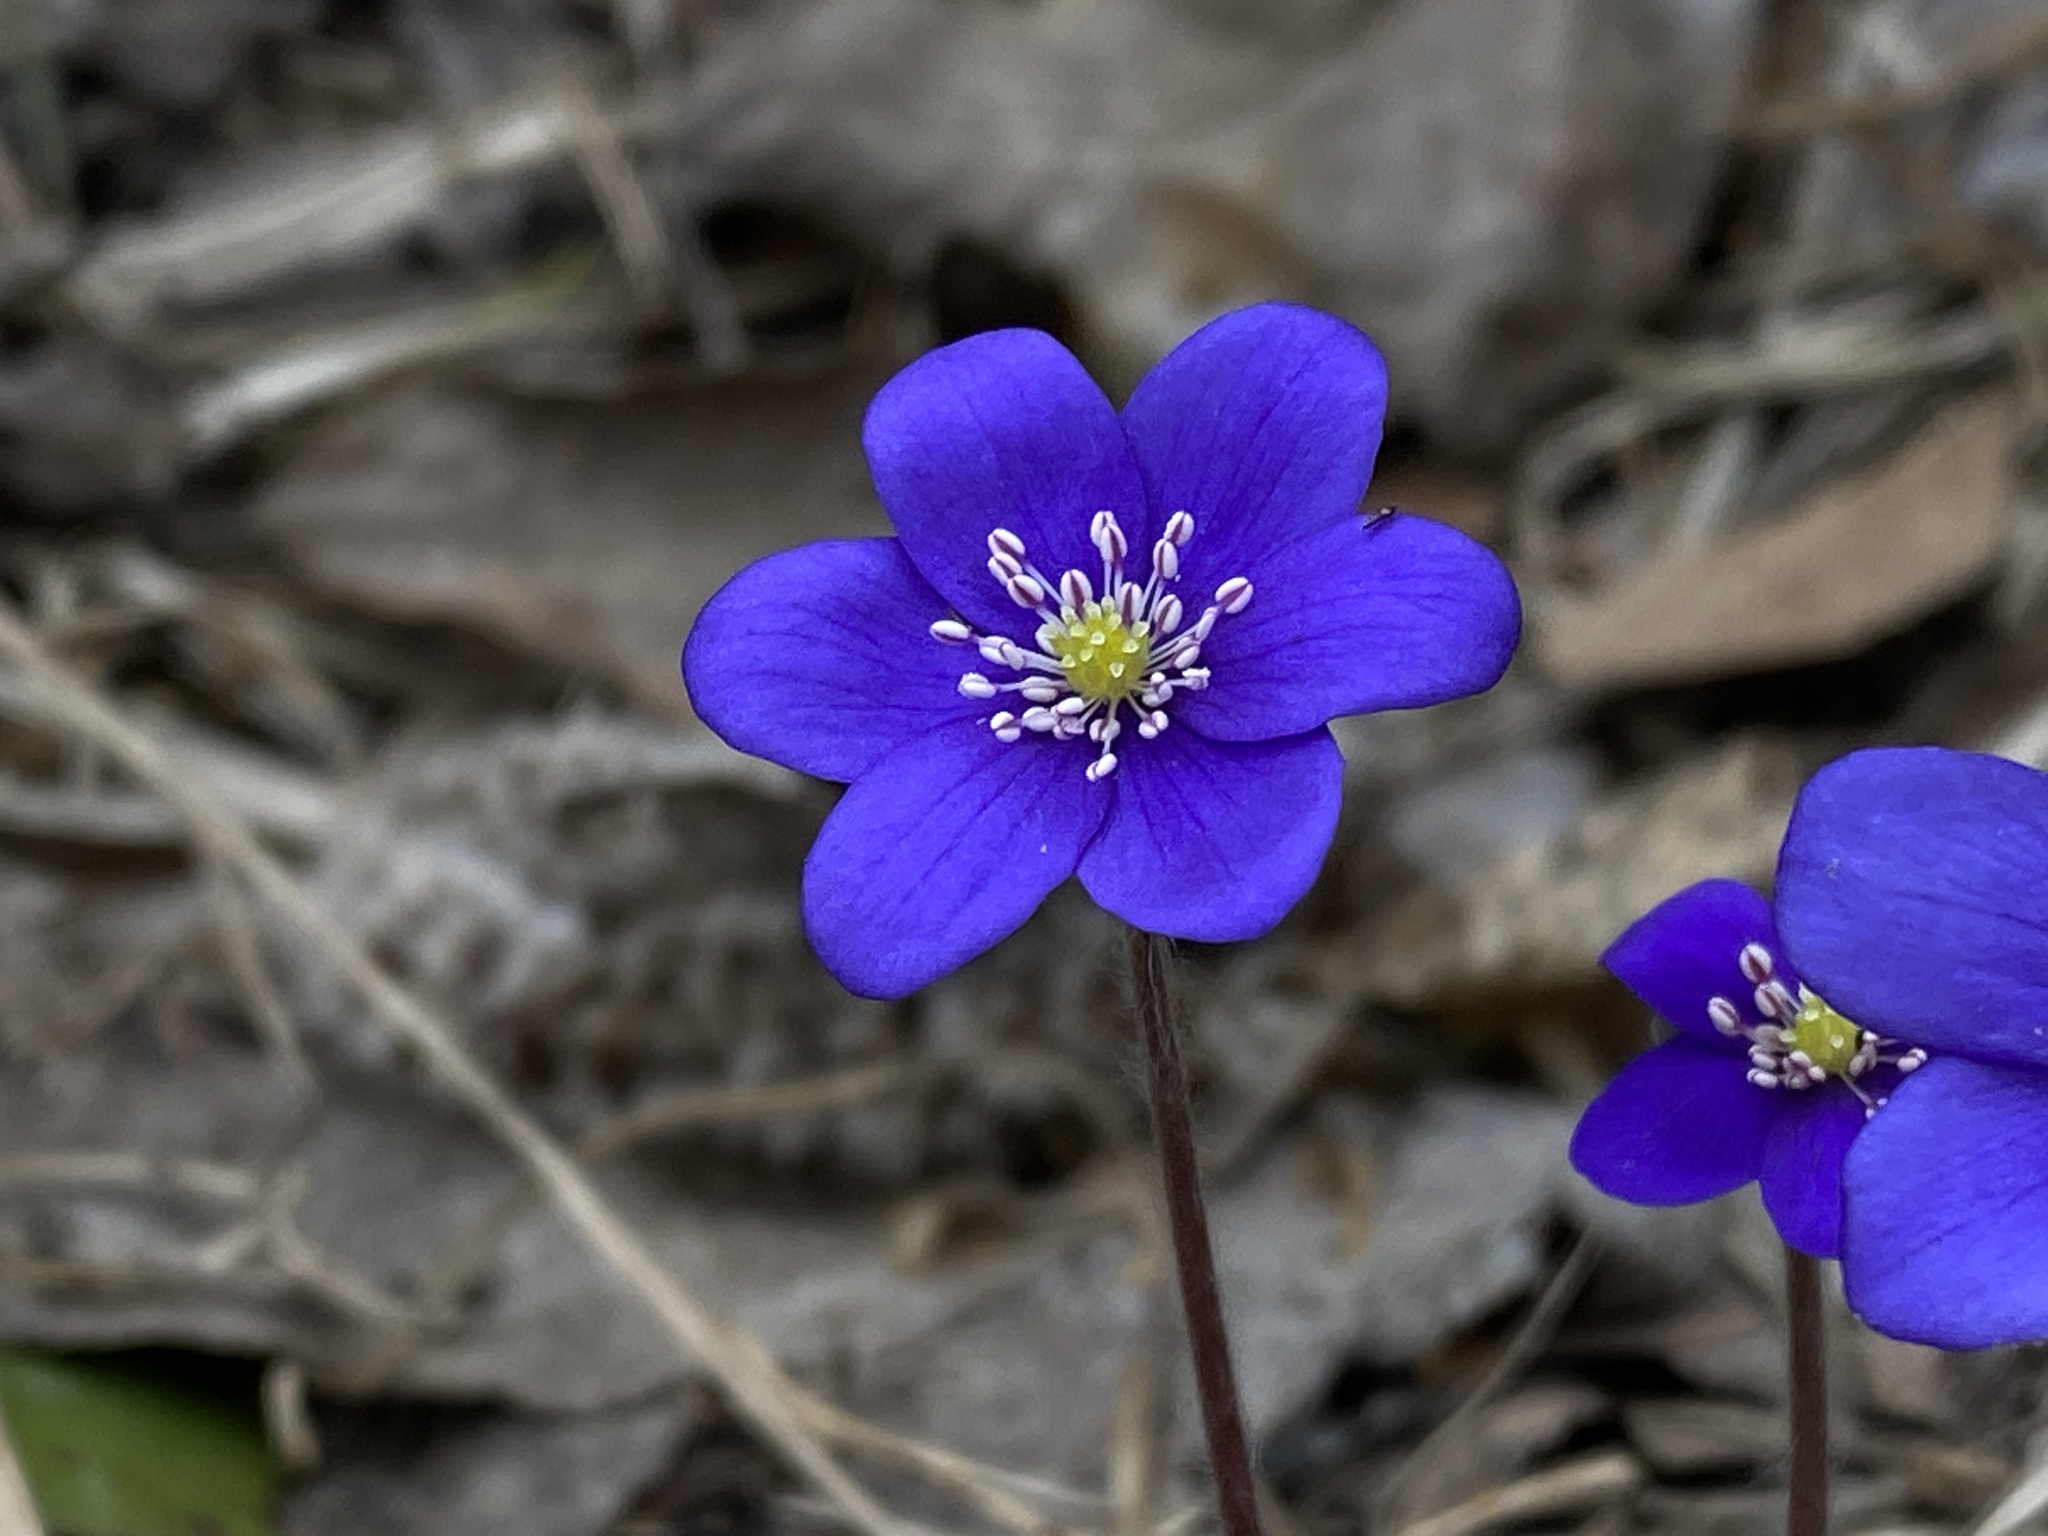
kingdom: Plantae
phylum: Tracheophyta
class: Magnoliopsida
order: Ranunculales
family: Ranunculaceae
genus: Hepatica
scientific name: Hepatica nobilis
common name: Liverleaf
